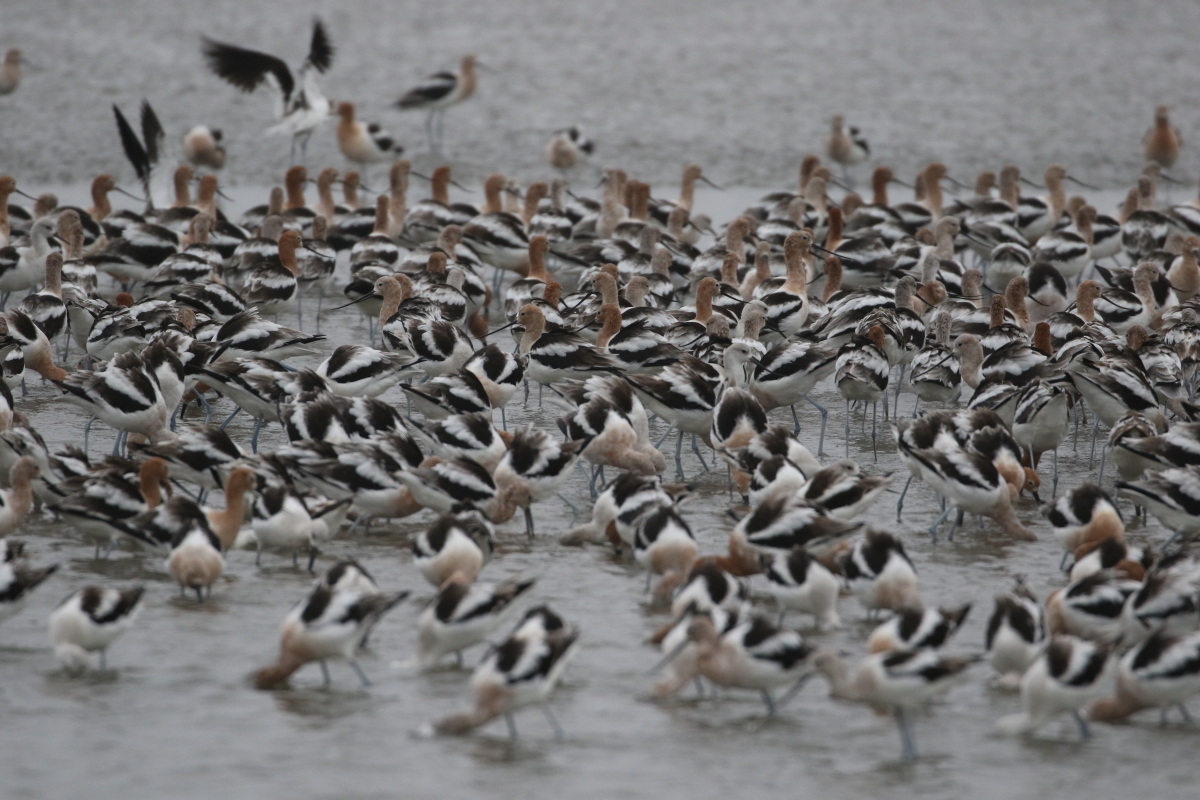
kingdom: Animalia
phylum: Chordata
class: Aves
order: Charadriiformes
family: Recurvirostridae
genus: Recurvirostra
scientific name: Recurvirostra americana
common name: American avocet
